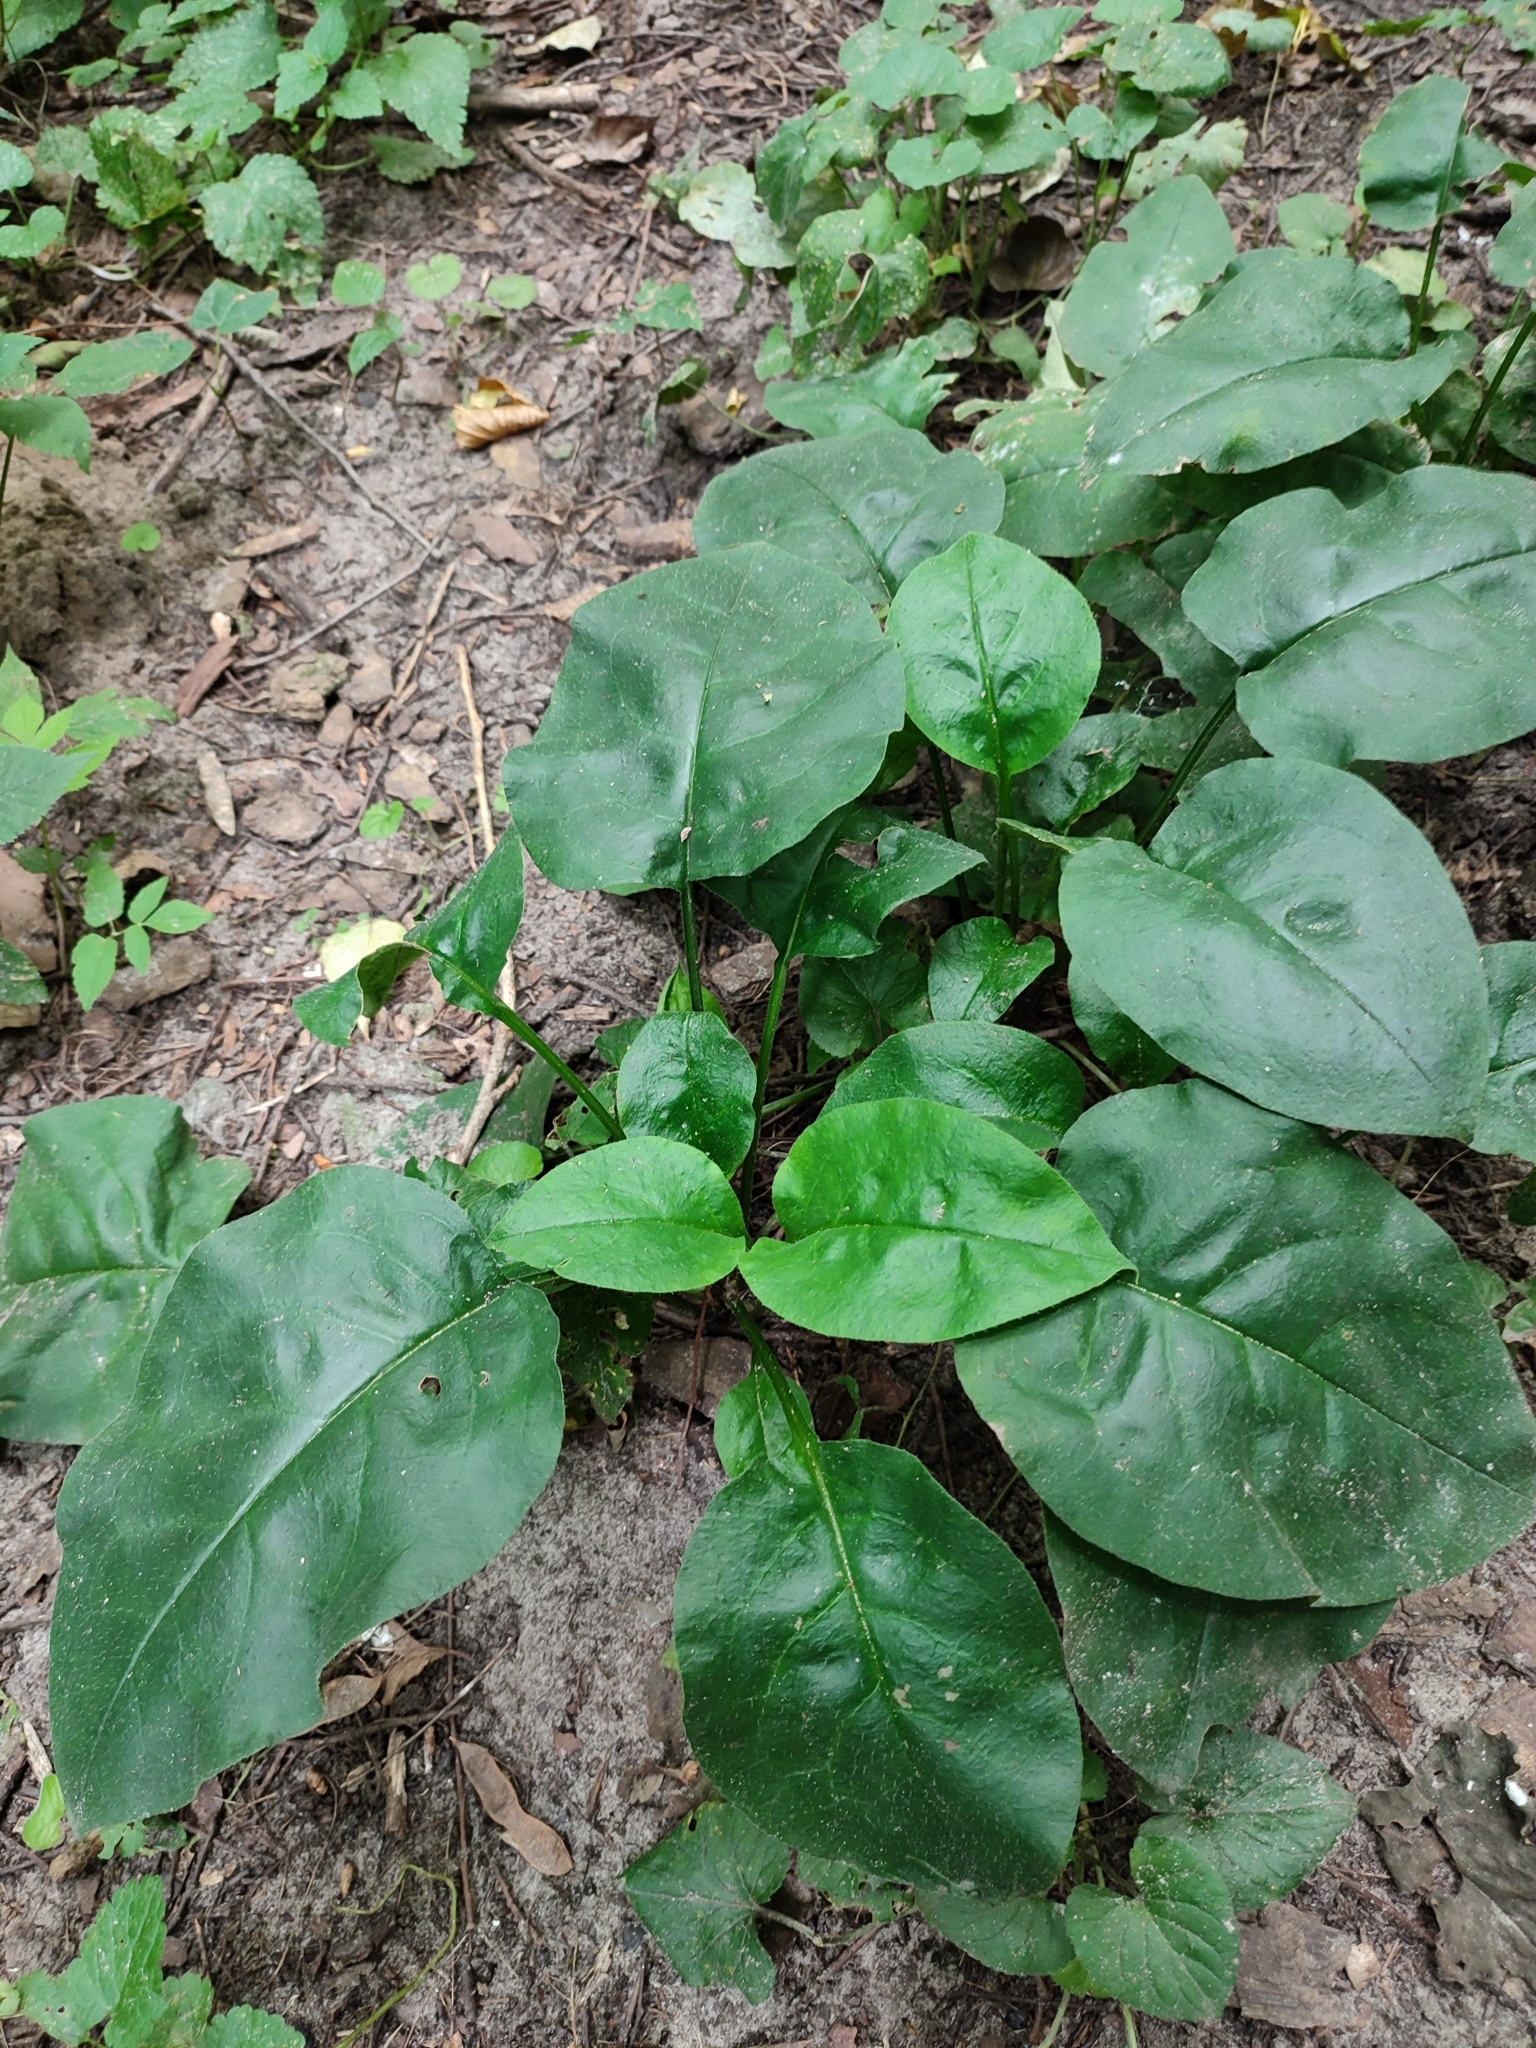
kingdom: Plantae
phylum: Tracheophyta
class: Magnoliopsida
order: Boraginales
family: Boraginaceae
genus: Pulmonaria
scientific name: Pulmonaria obscura
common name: Suffolk lungwort
